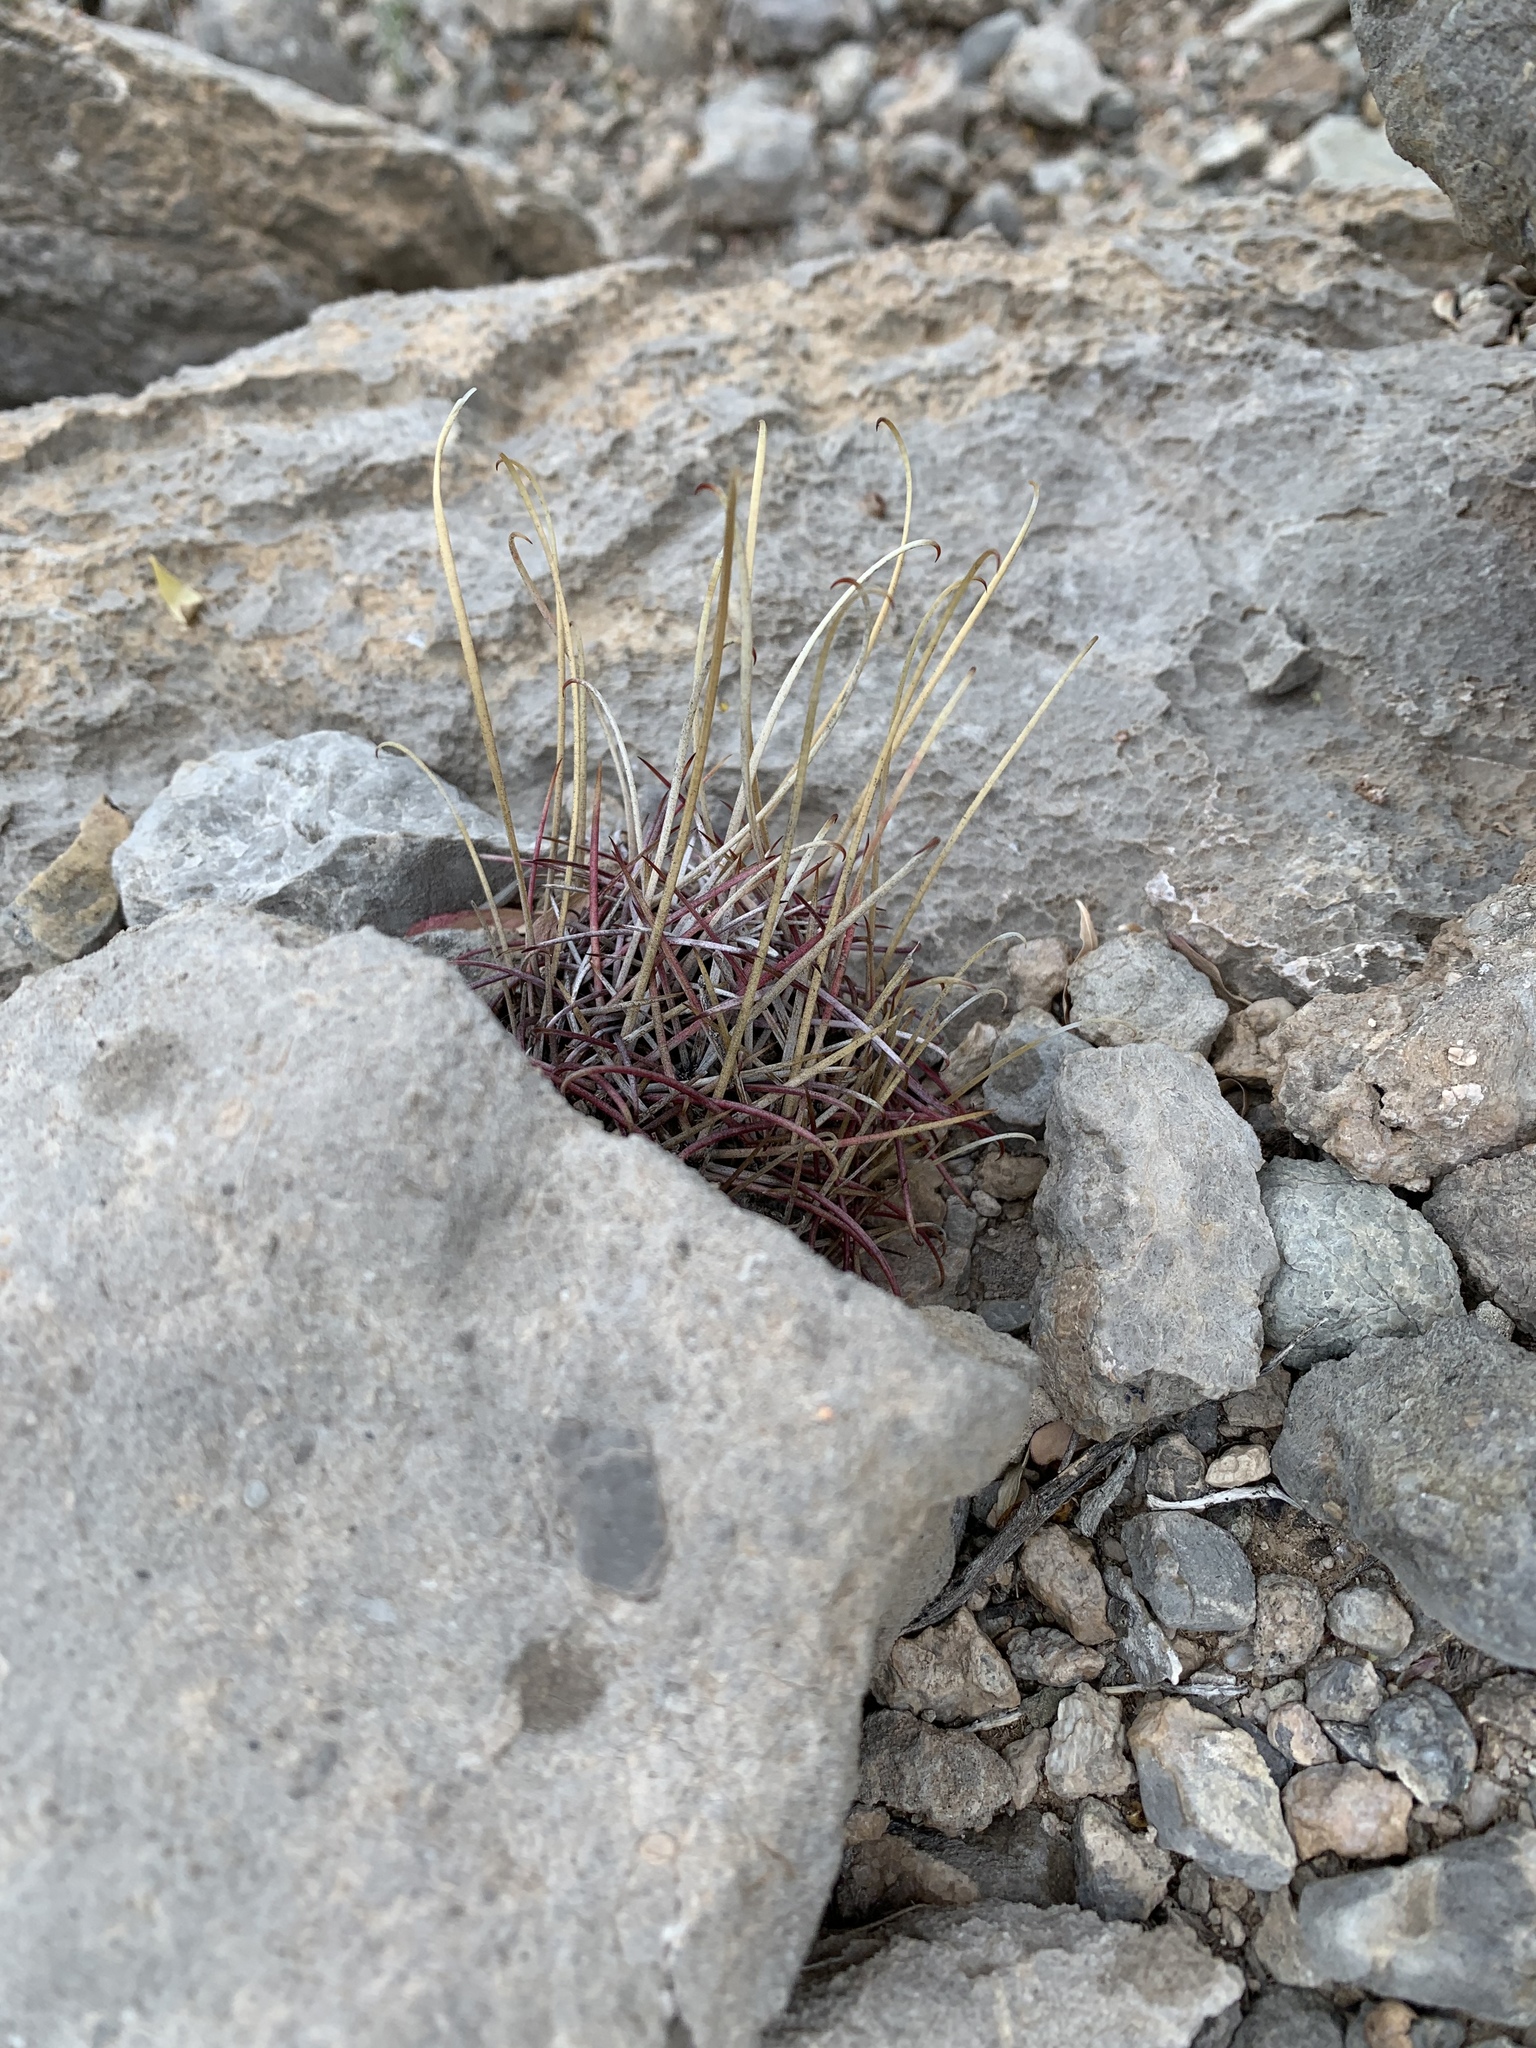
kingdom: Plantae
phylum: Tracheophyta
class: Magnoliopsida
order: Caryophyllales
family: Cactaceae
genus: Ferocactus
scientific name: Ferocactus uncinatus
